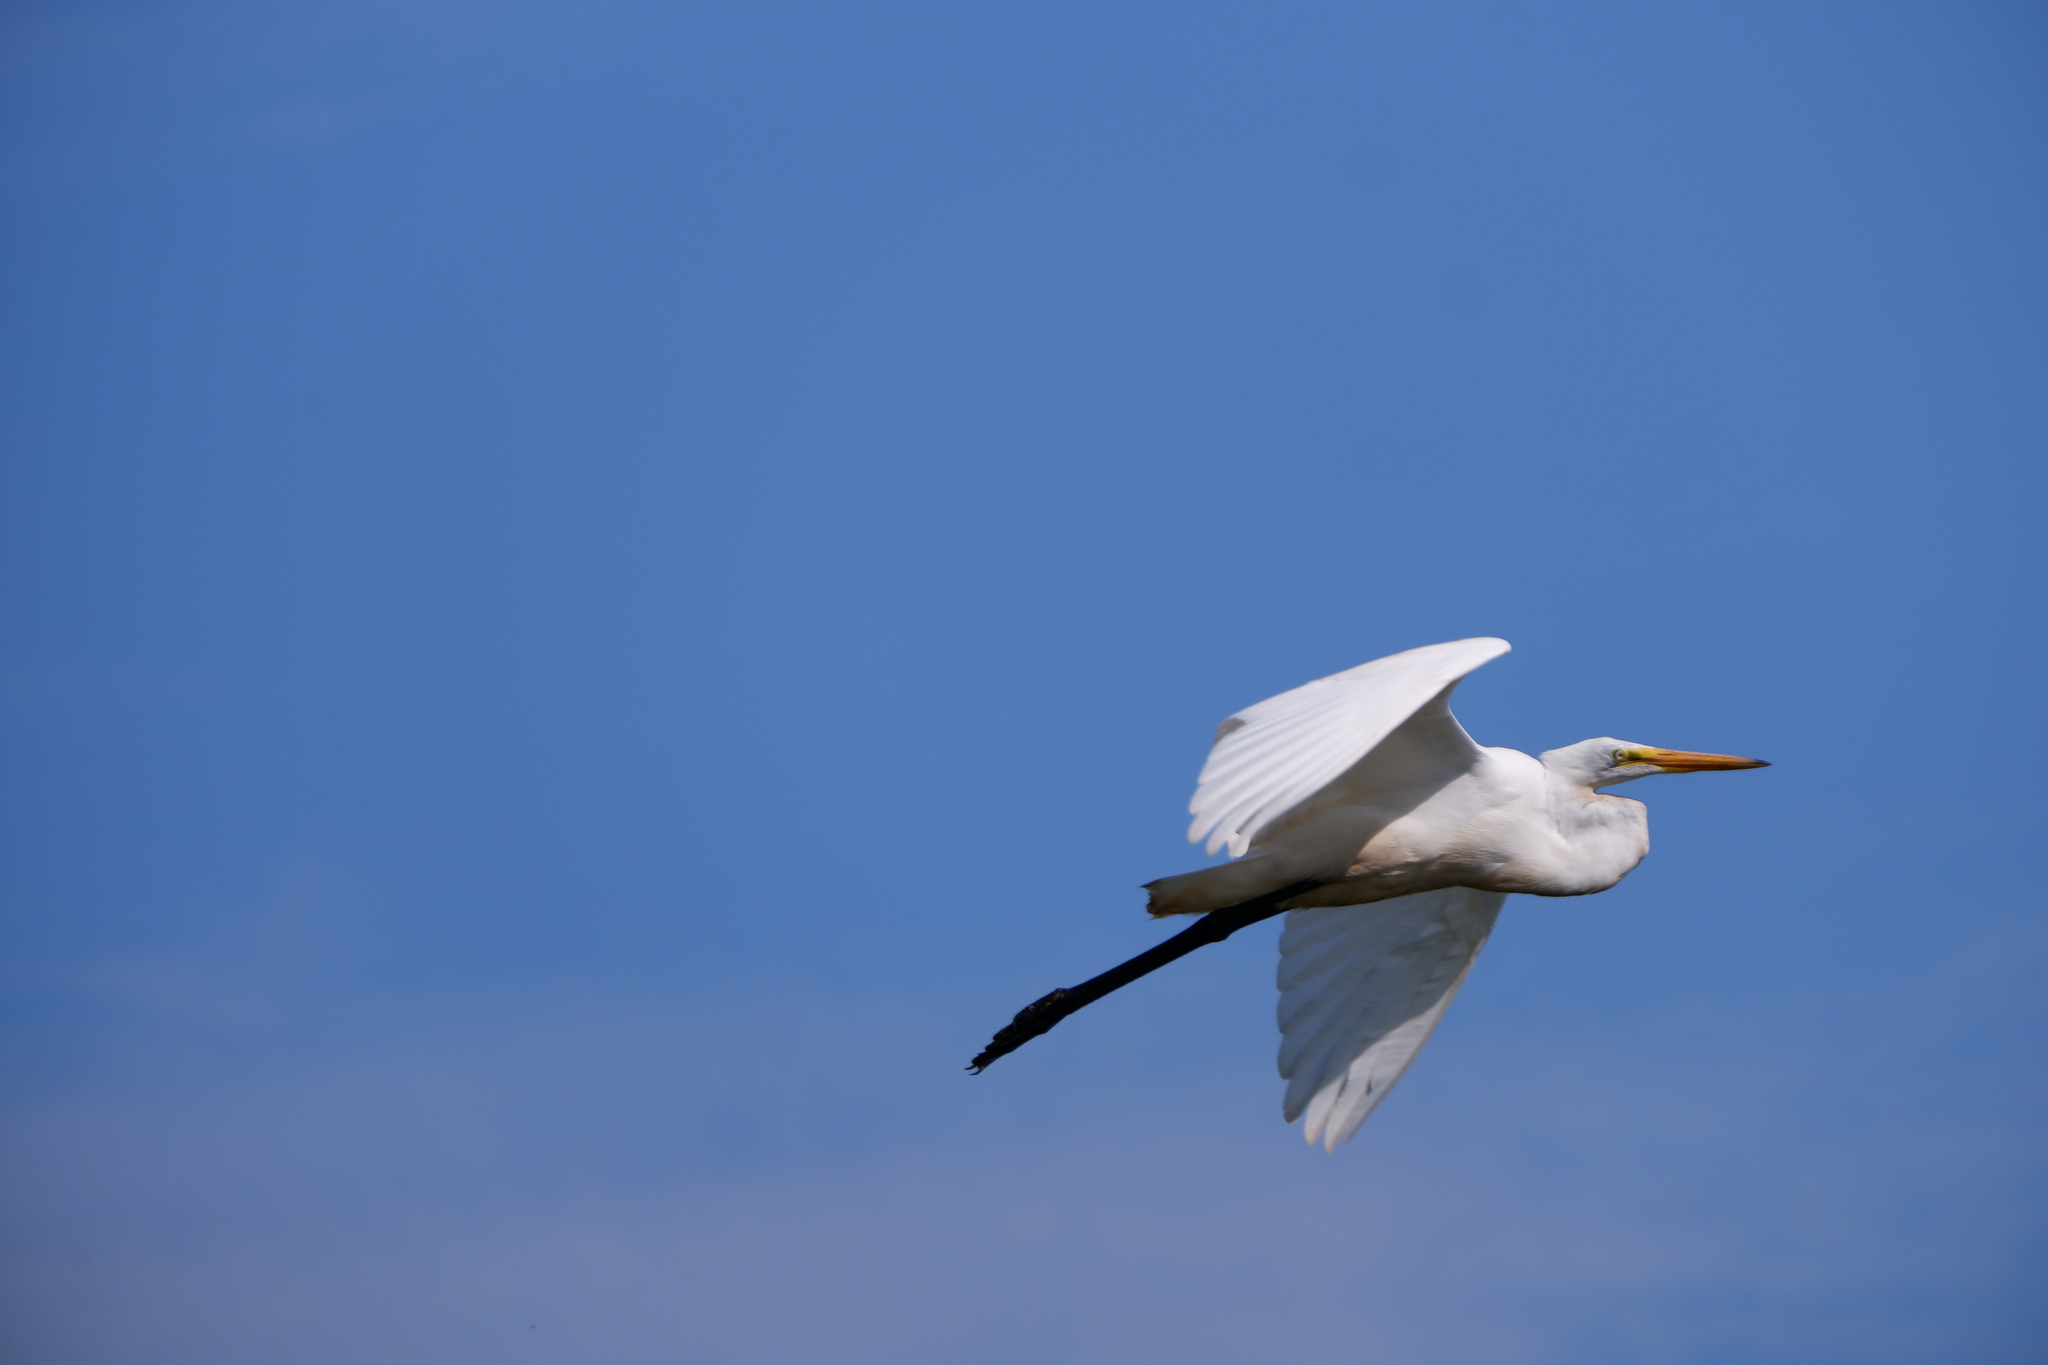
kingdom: Animalia
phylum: Chordata
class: Aves
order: Pelecaniformes
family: Ardeidae
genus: Ardea
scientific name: Ardea alba
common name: Great egret
